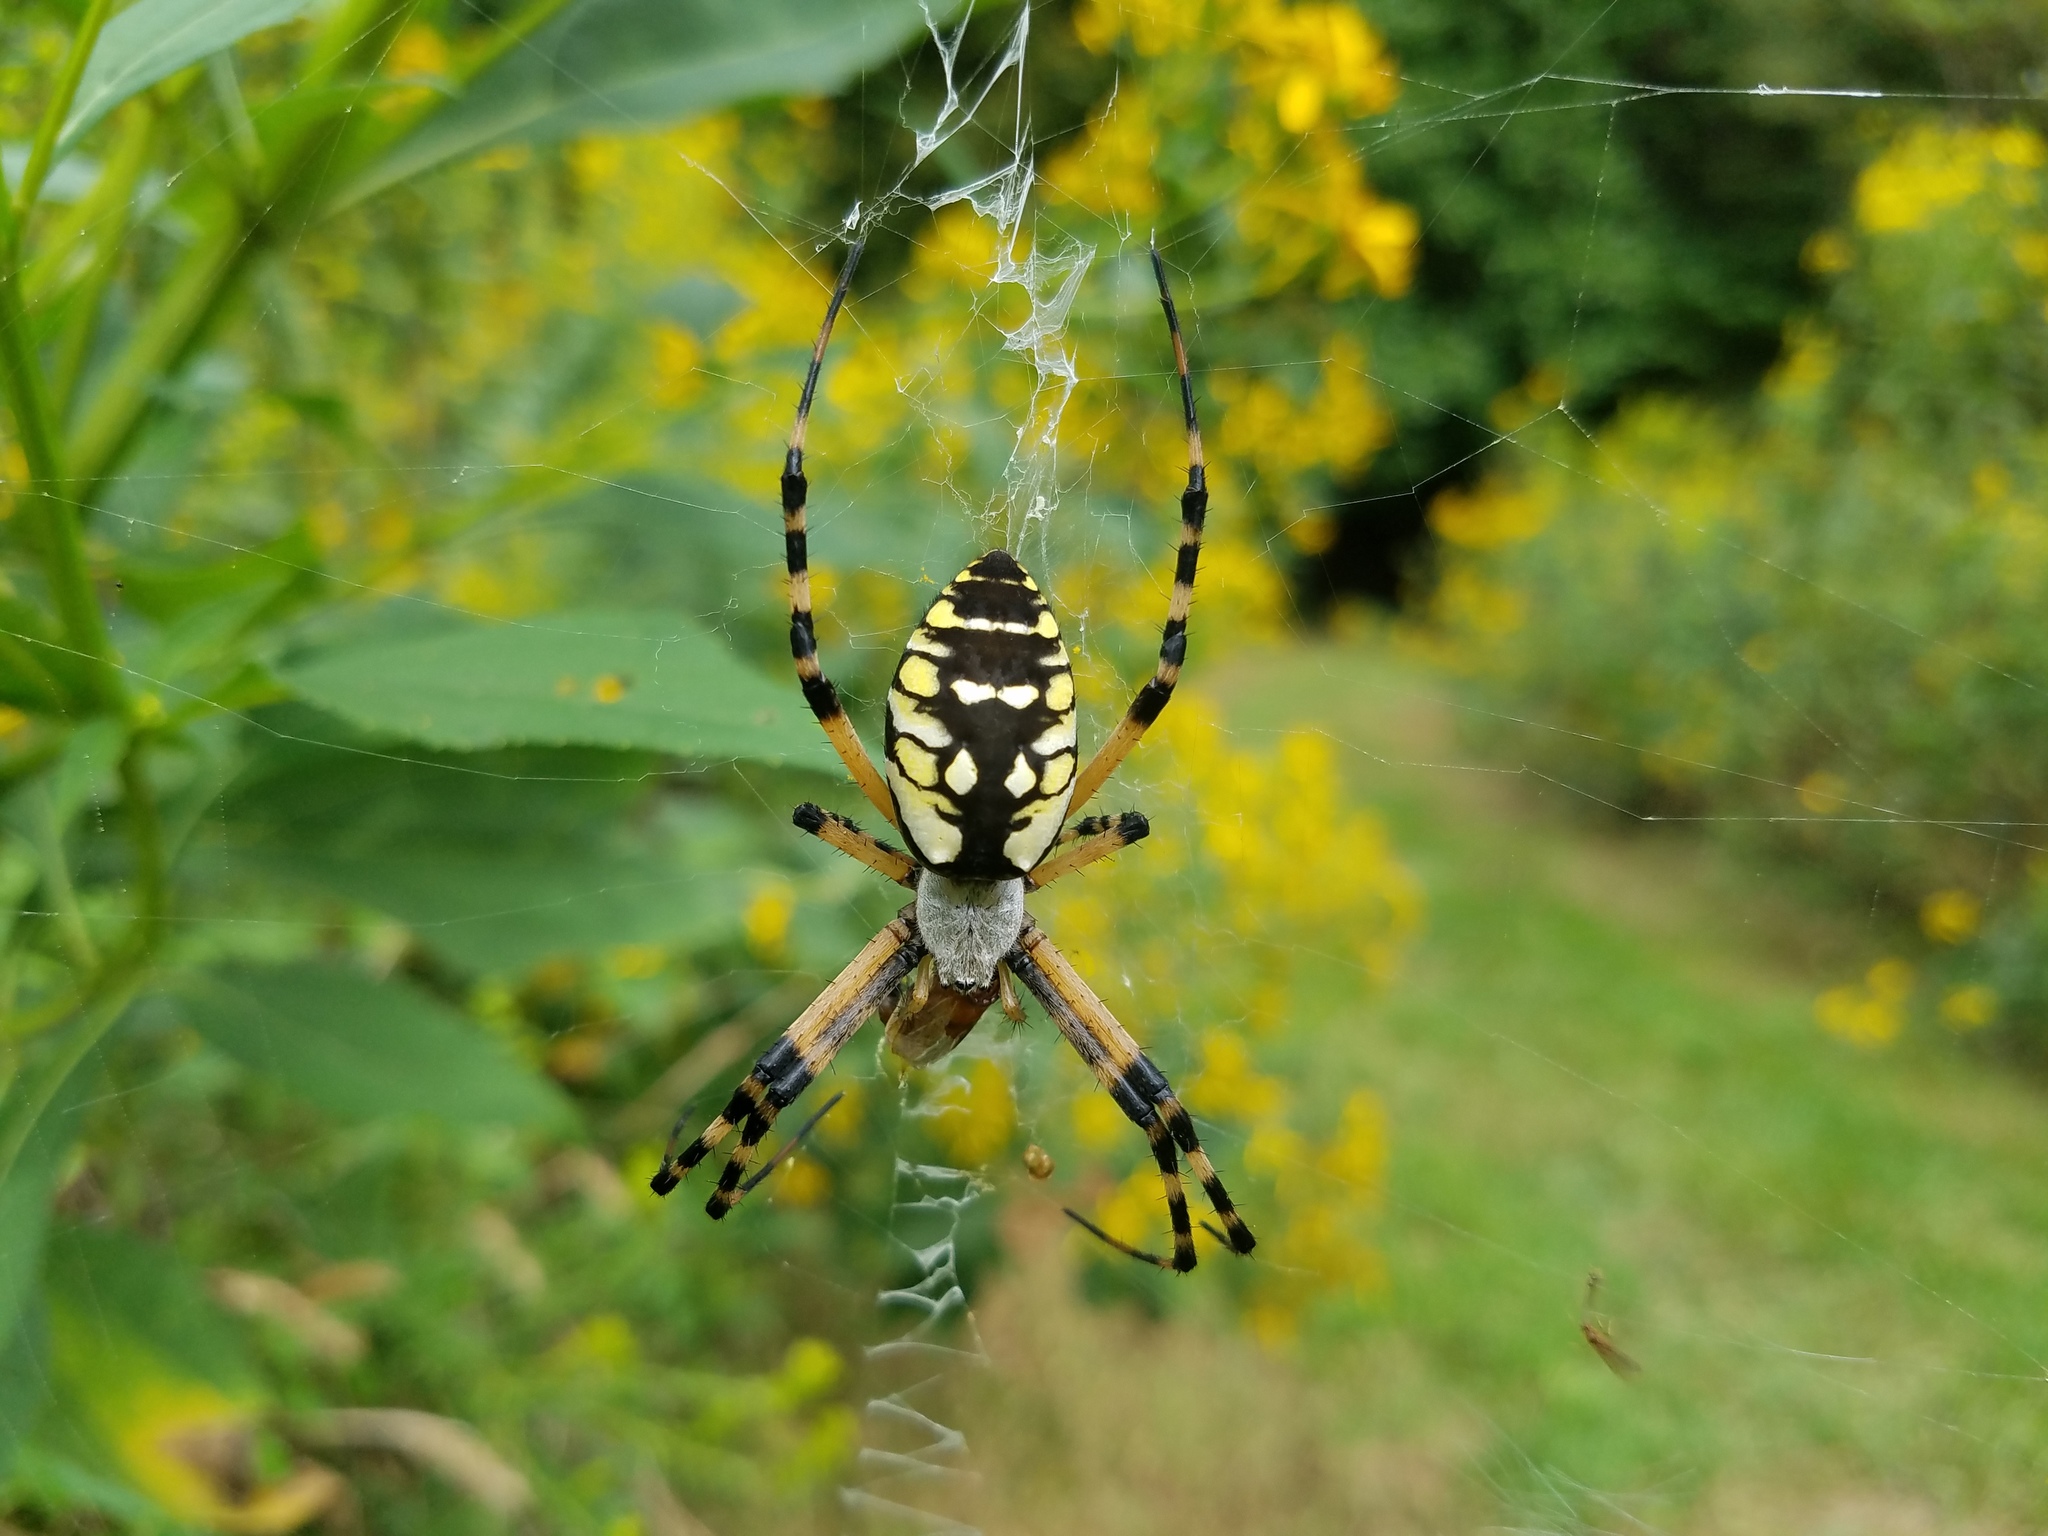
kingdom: Animalia
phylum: Arthropoda
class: Arachnida
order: Araneae
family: Araneidae
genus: Argiope
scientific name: Argiope aurantia
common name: Orb weavers
